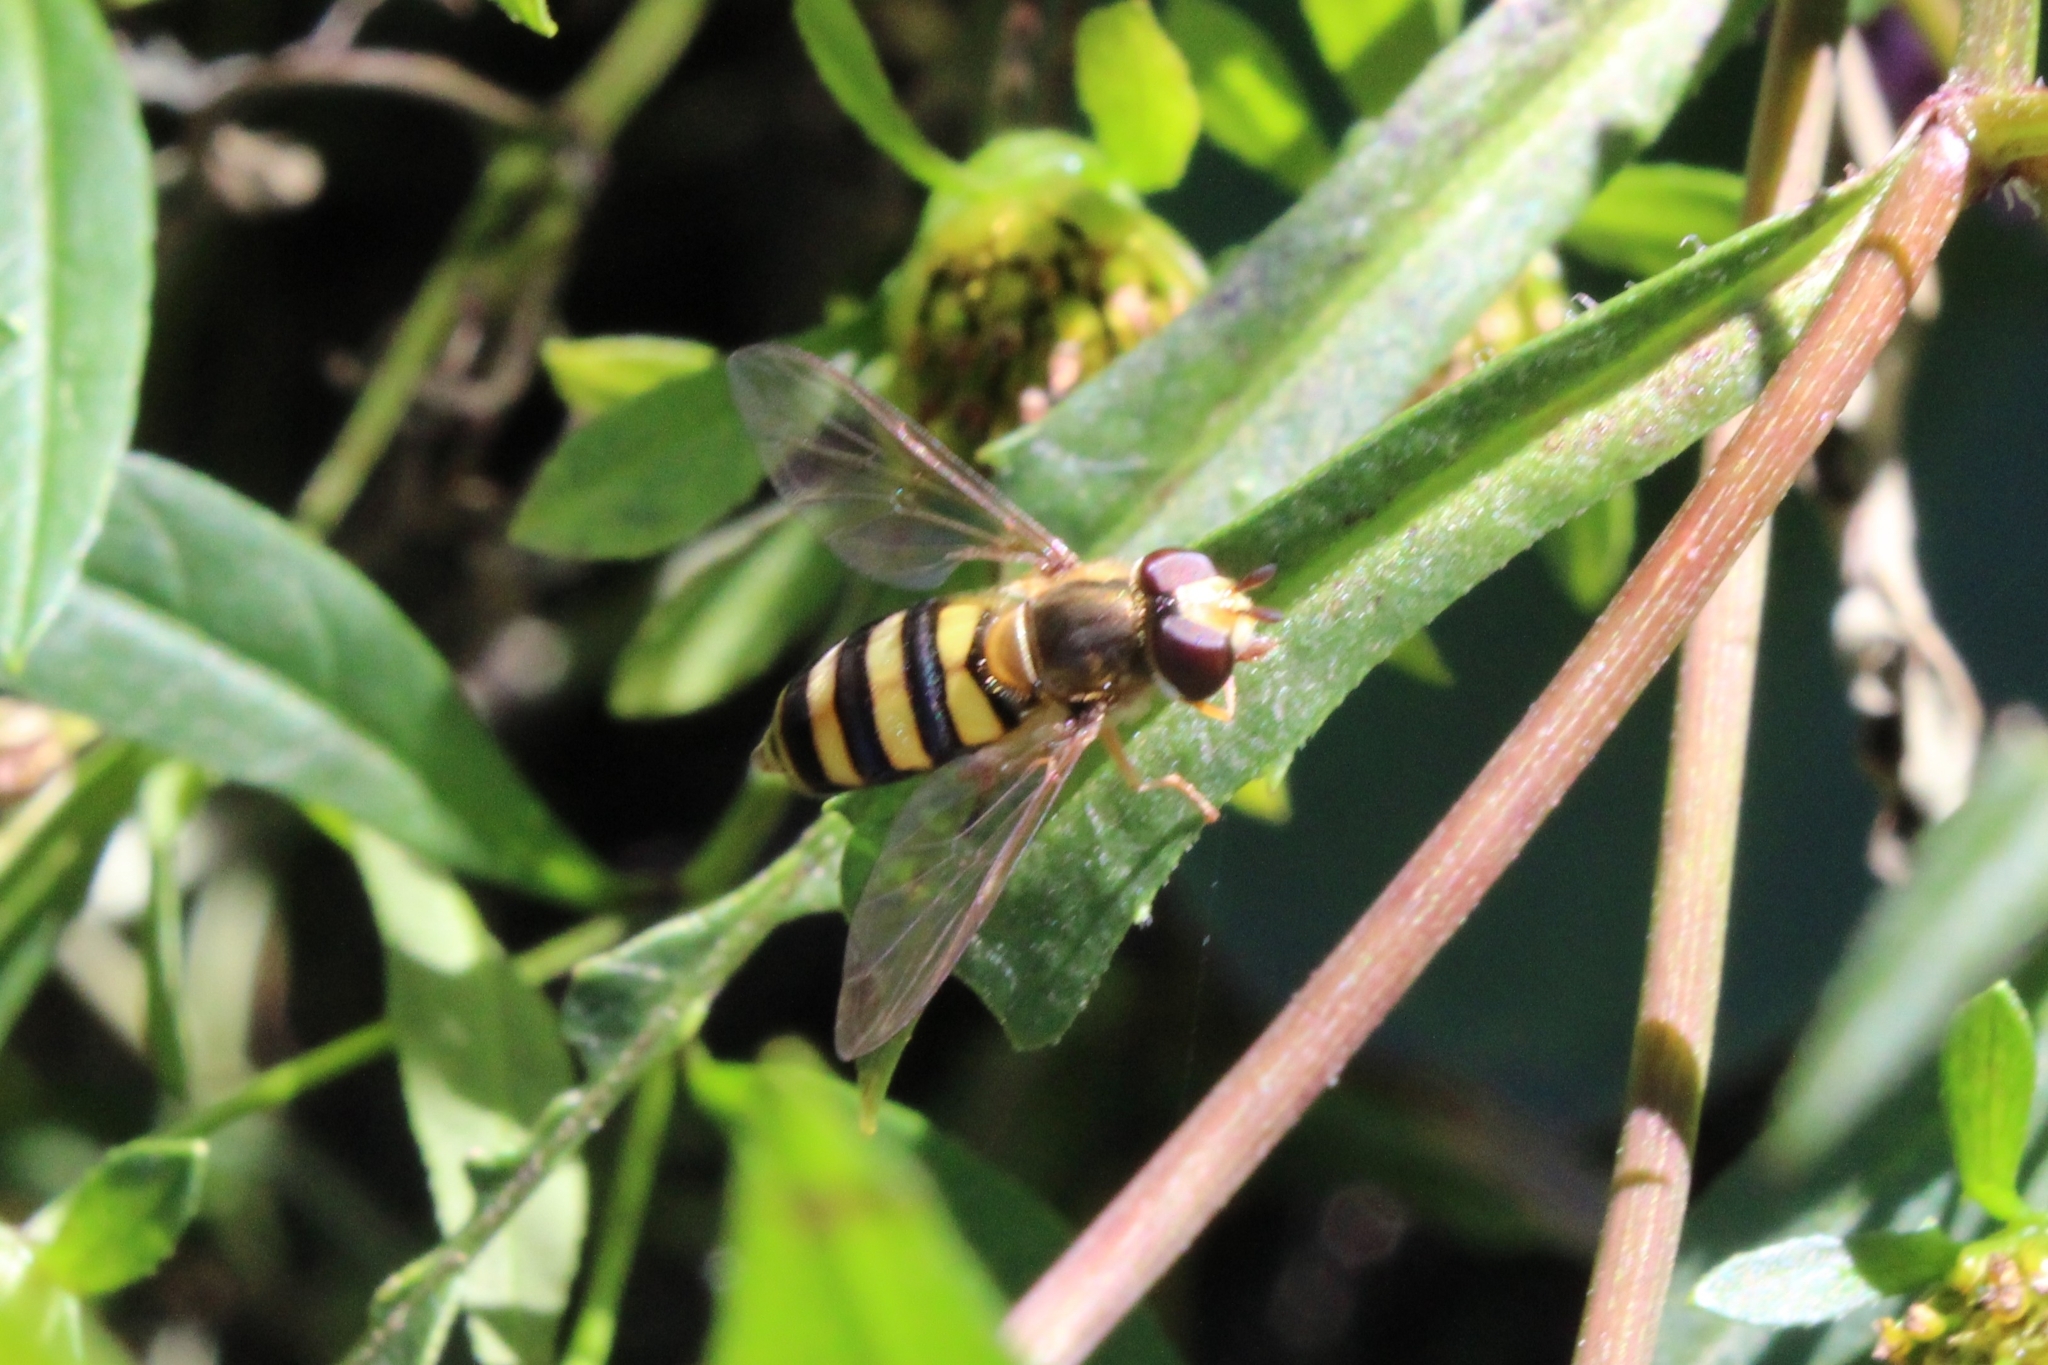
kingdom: Animalia
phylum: Arthropoda
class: Insecta
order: Diptera
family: Syrphidae
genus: Eupeodes
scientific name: Eupeodes
